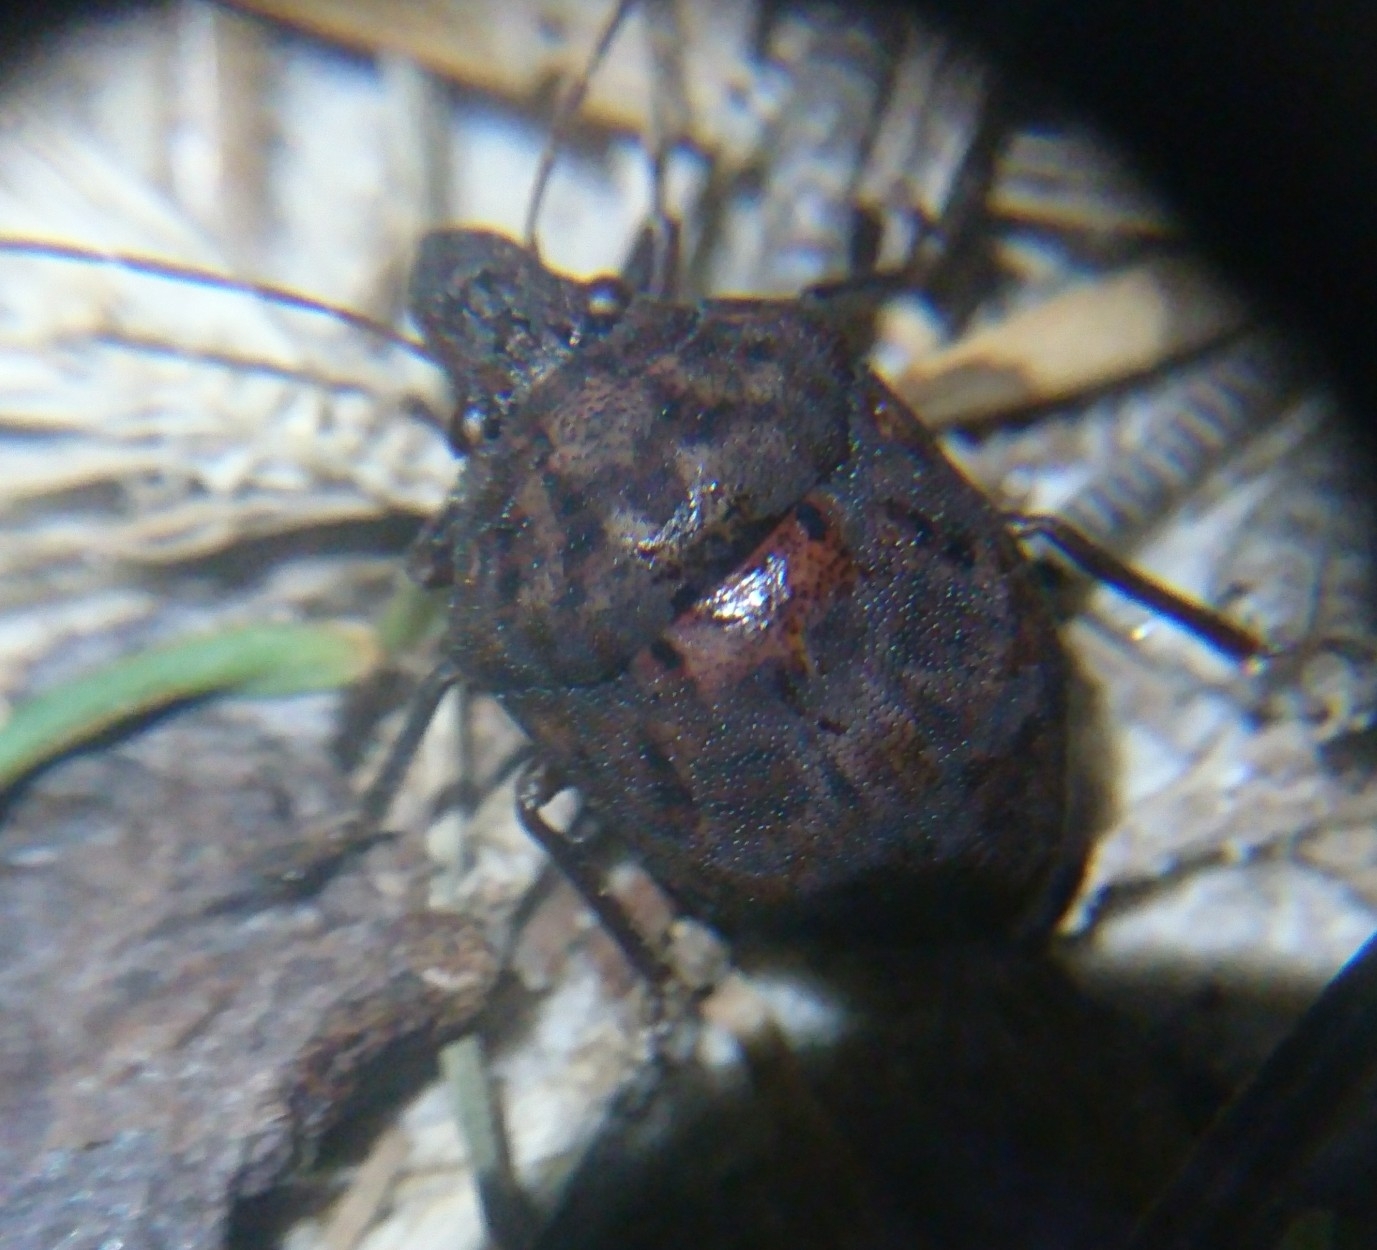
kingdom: Animalia
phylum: Arthropoda
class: Insecta
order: Hemiptera
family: Scutelleridae
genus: Tetyra
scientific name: Tetyra bipunctata
